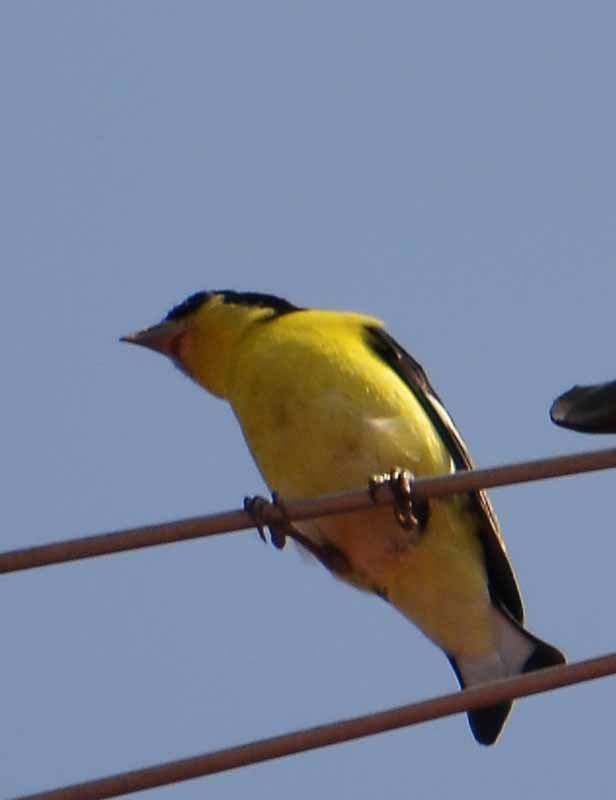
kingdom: Animalia
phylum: Chordata
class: Aves
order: Passeriformes
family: Fringillidae
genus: Spinus
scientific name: Spinus psaltria
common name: Lesser goldfinch
